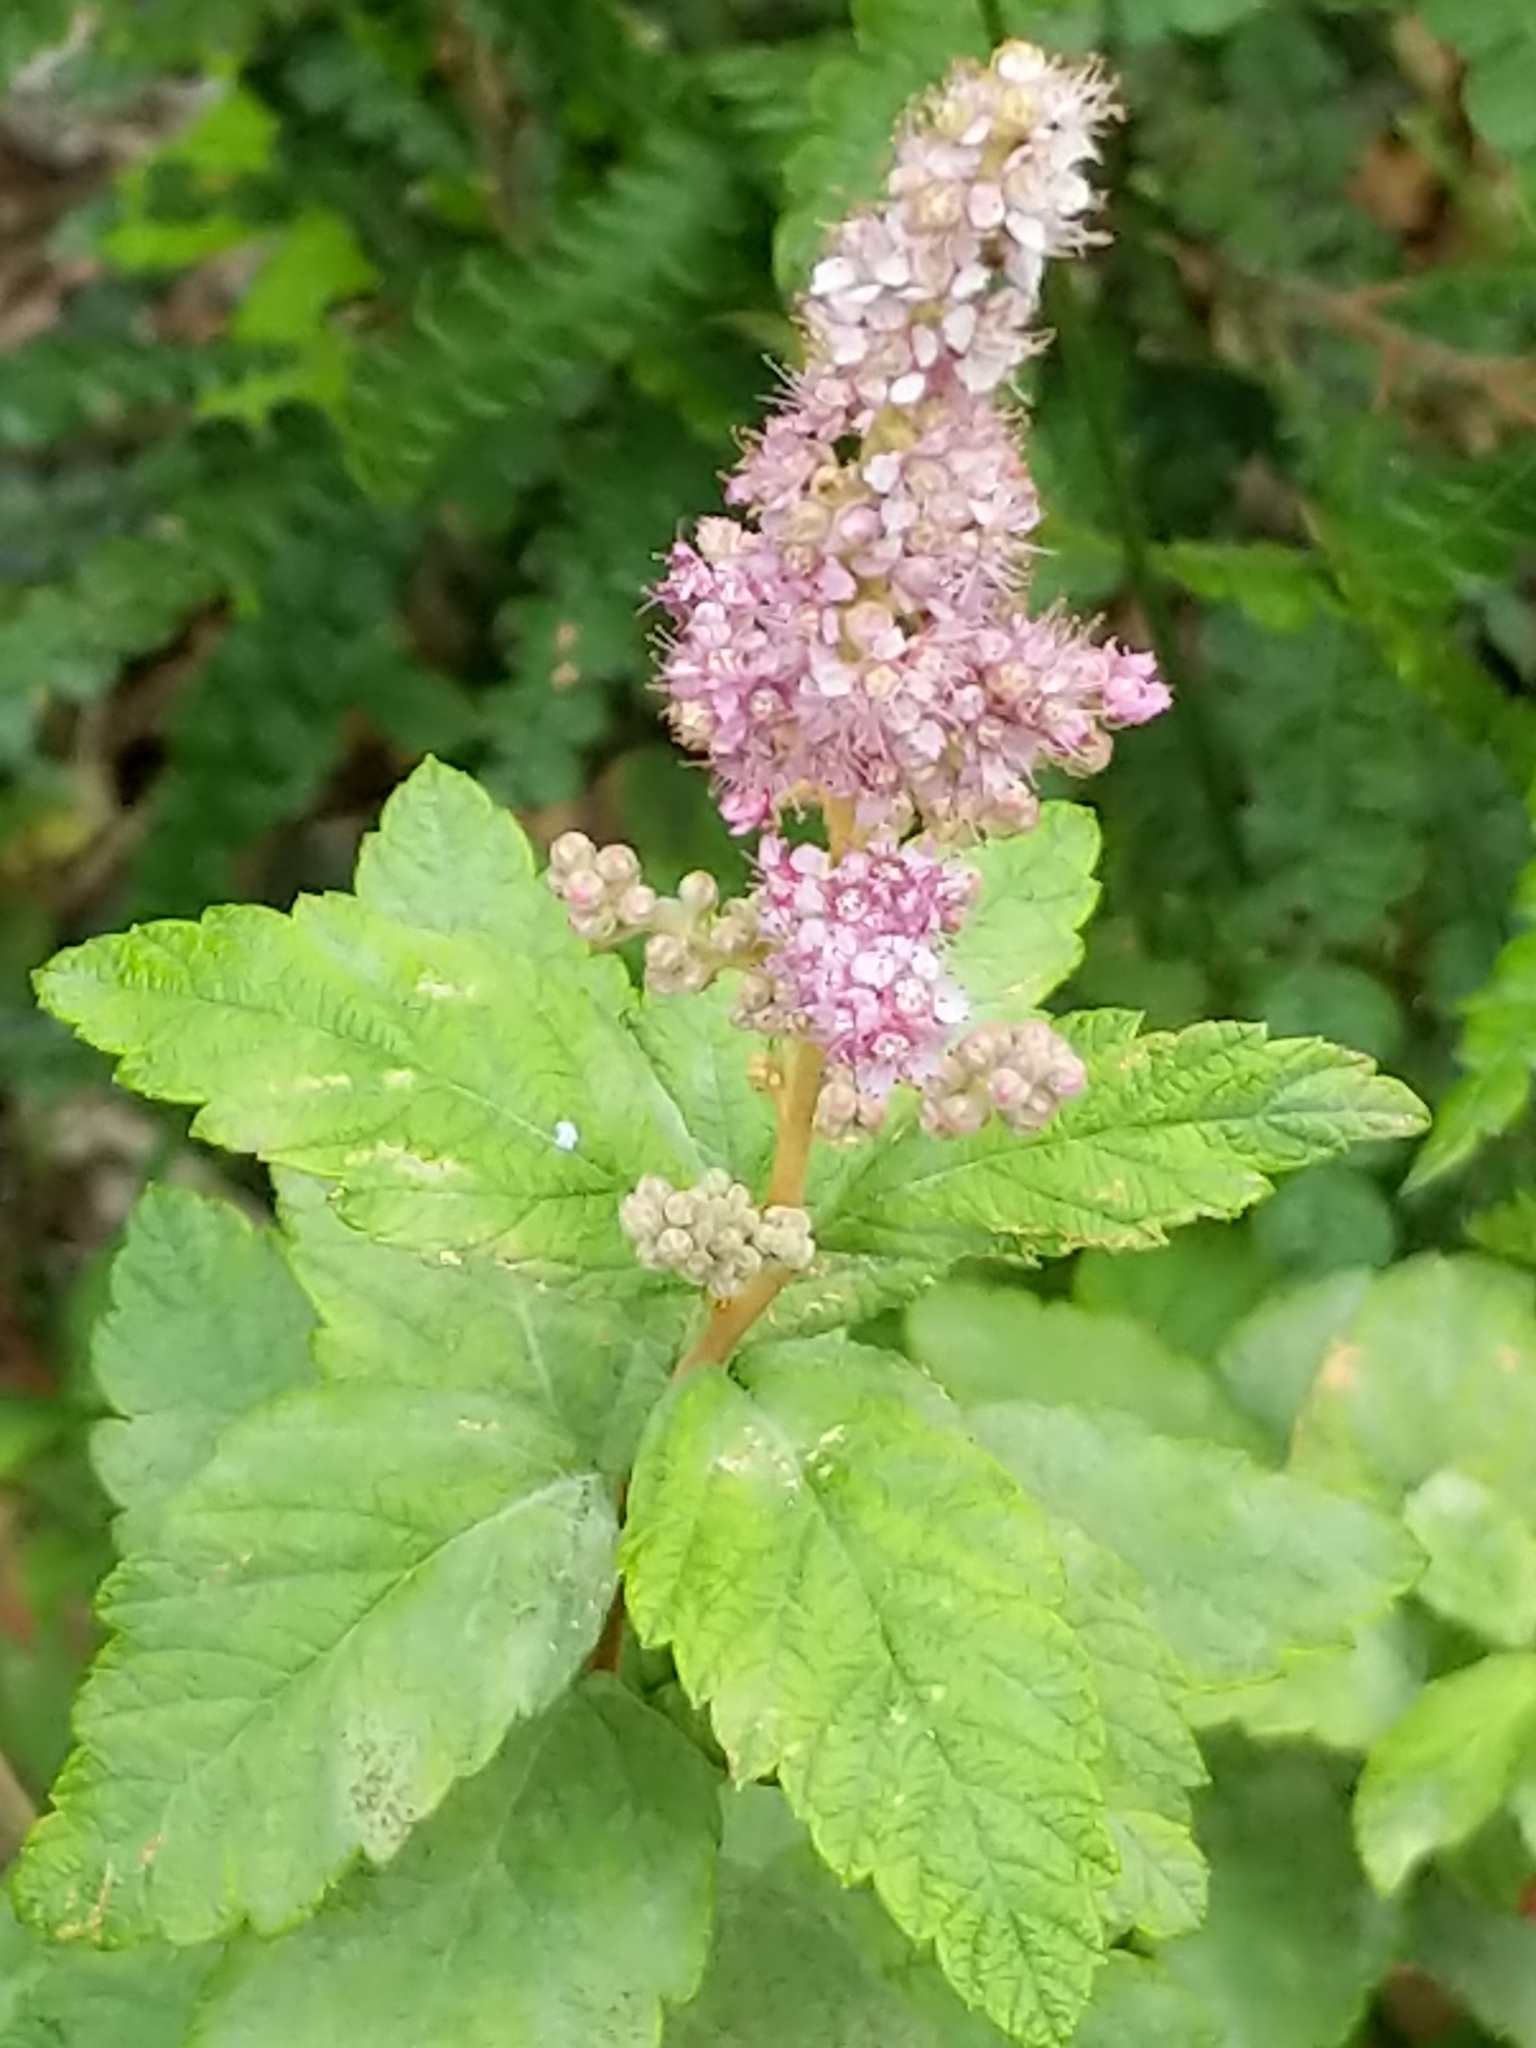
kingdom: Plantae
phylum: Tracheophyta
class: Magnoliopsida
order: Rosales
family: Rosaceae
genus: Spiraea
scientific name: Spiraea tomentosa
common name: Hardhack
